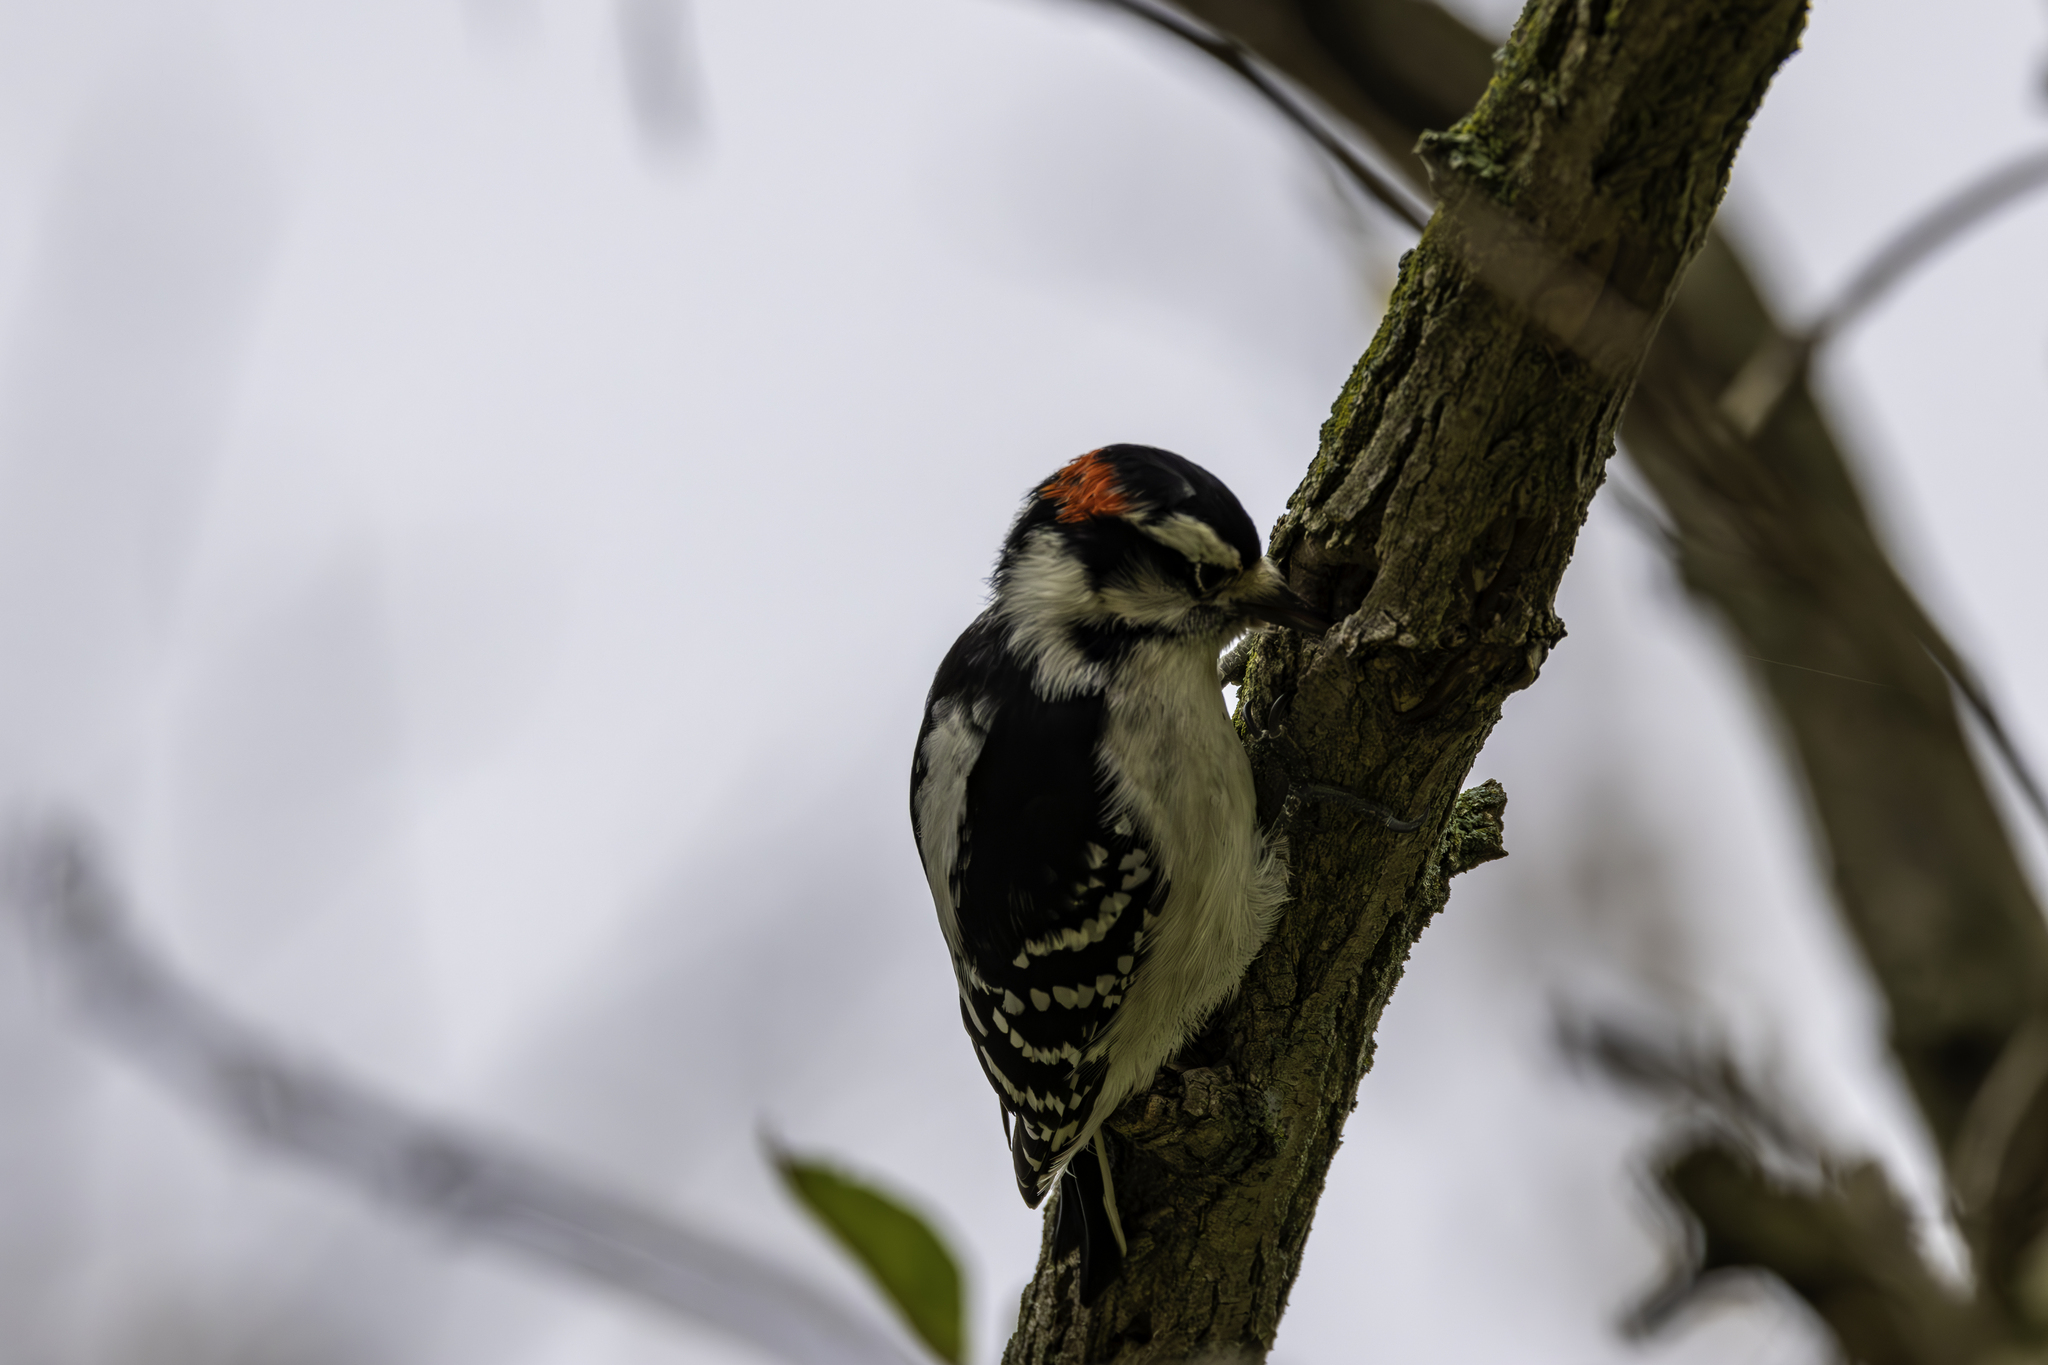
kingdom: Animalia
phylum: Chordata
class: Aves
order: Piciformes
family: Picidae
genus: Dryobates
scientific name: Dryobates pubescens
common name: Downy woodpecker
